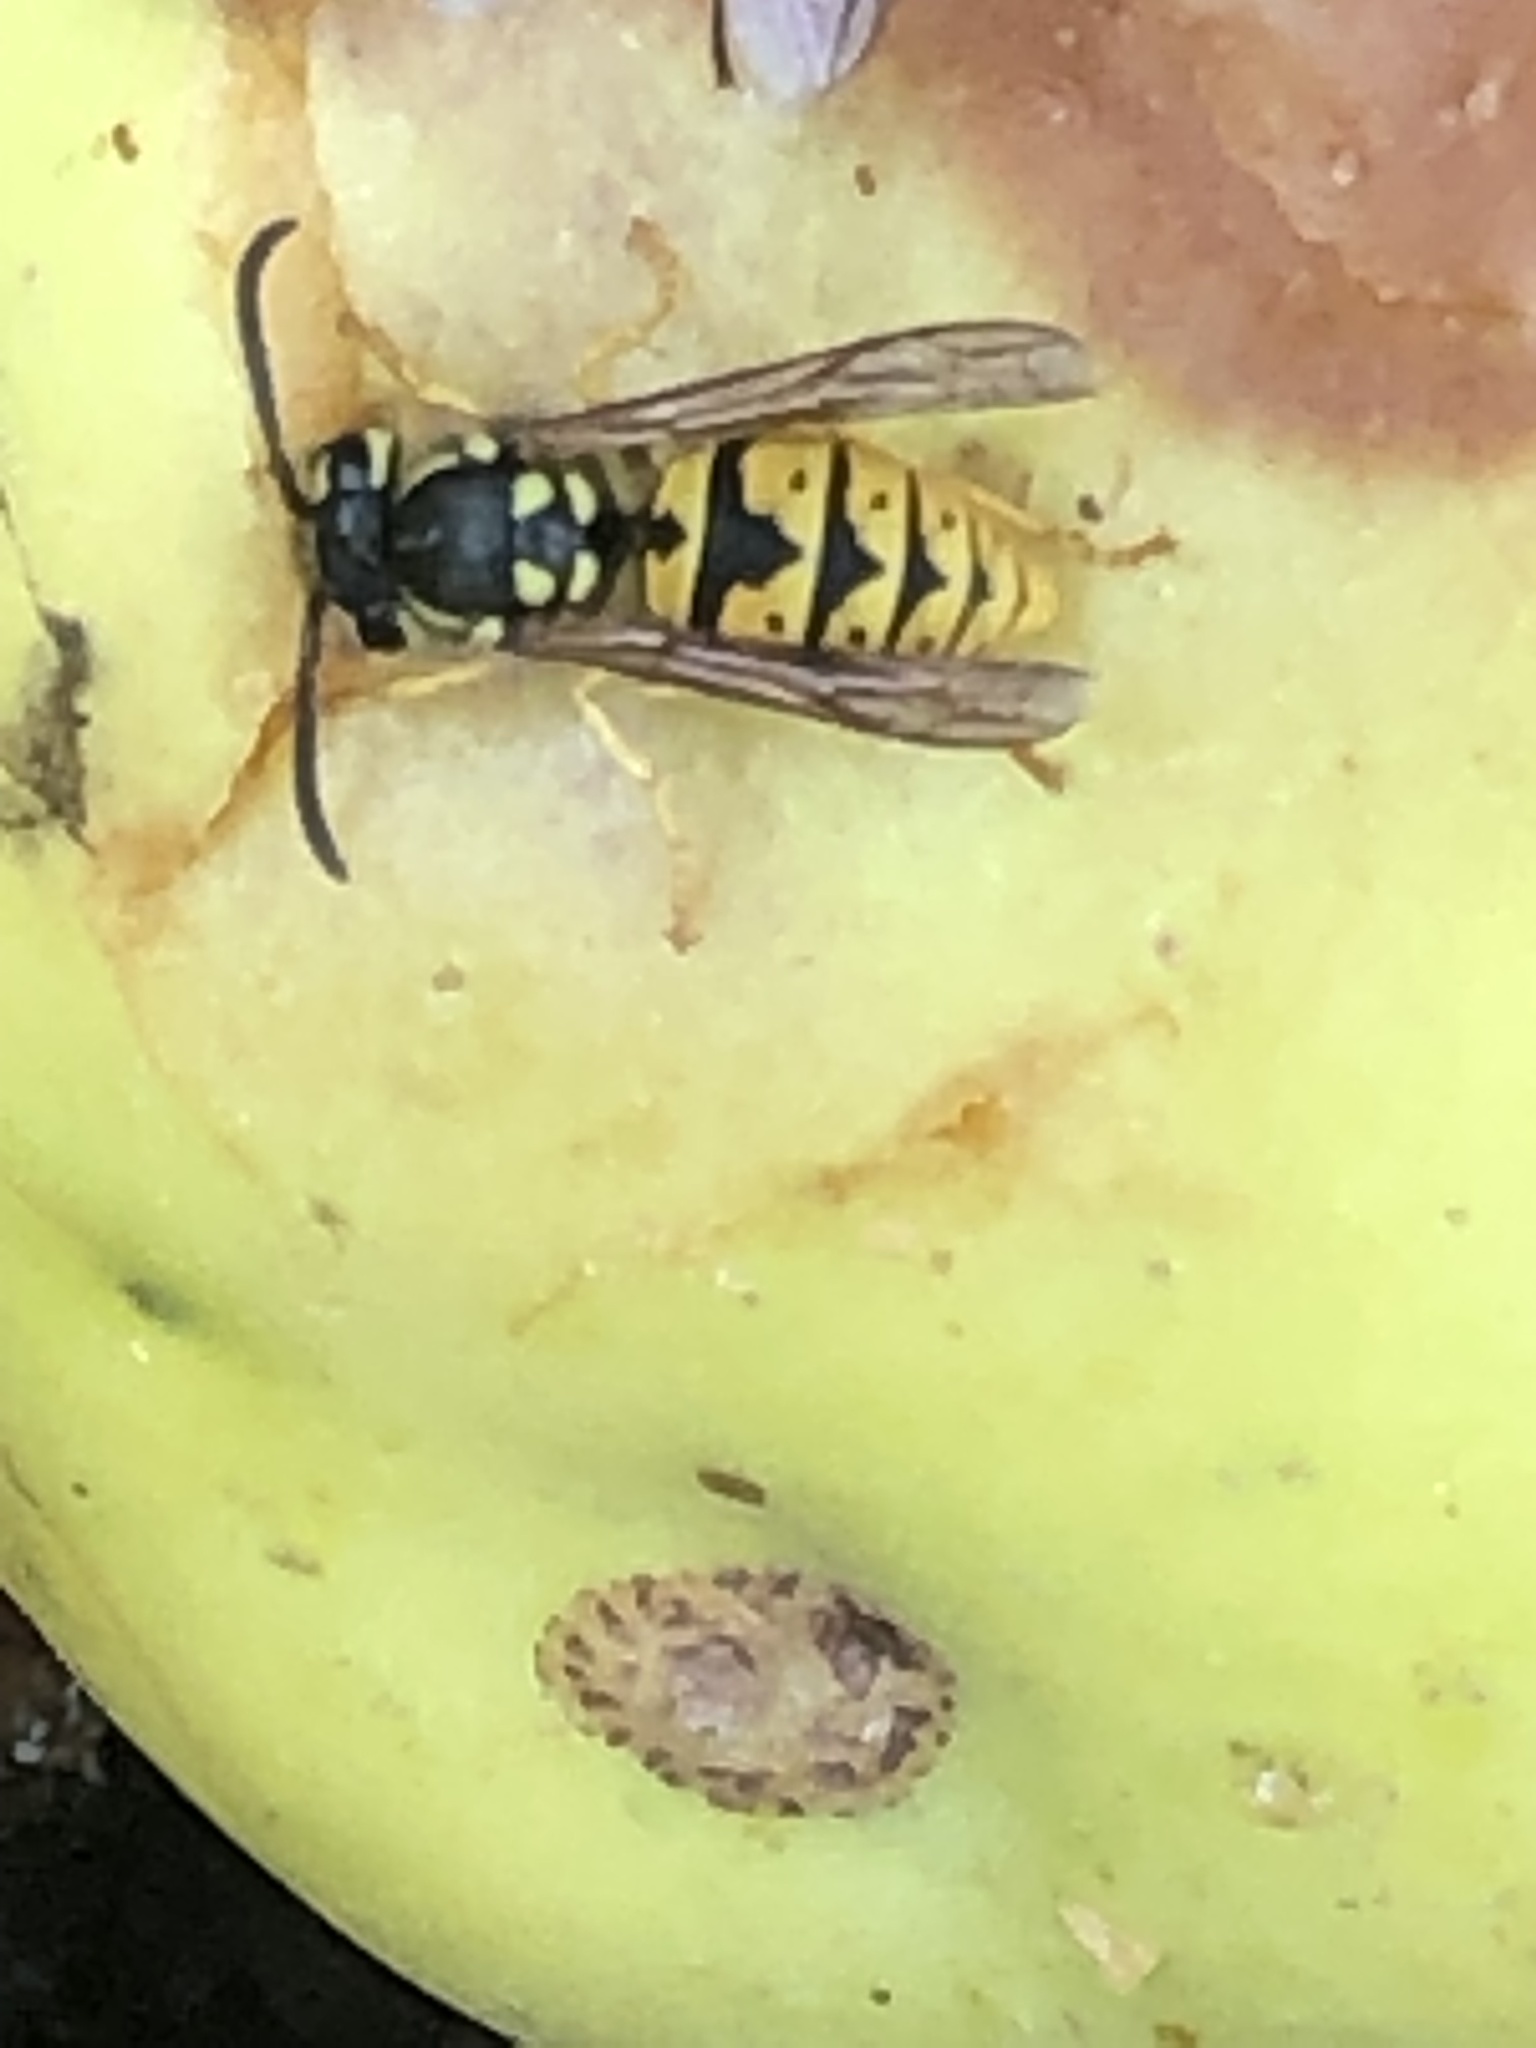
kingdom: Animalia
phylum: Arthropoda
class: Insecta
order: Hymenoptera
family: Vespidae
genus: Vespula
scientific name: Vespula germanica
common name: German wasp
